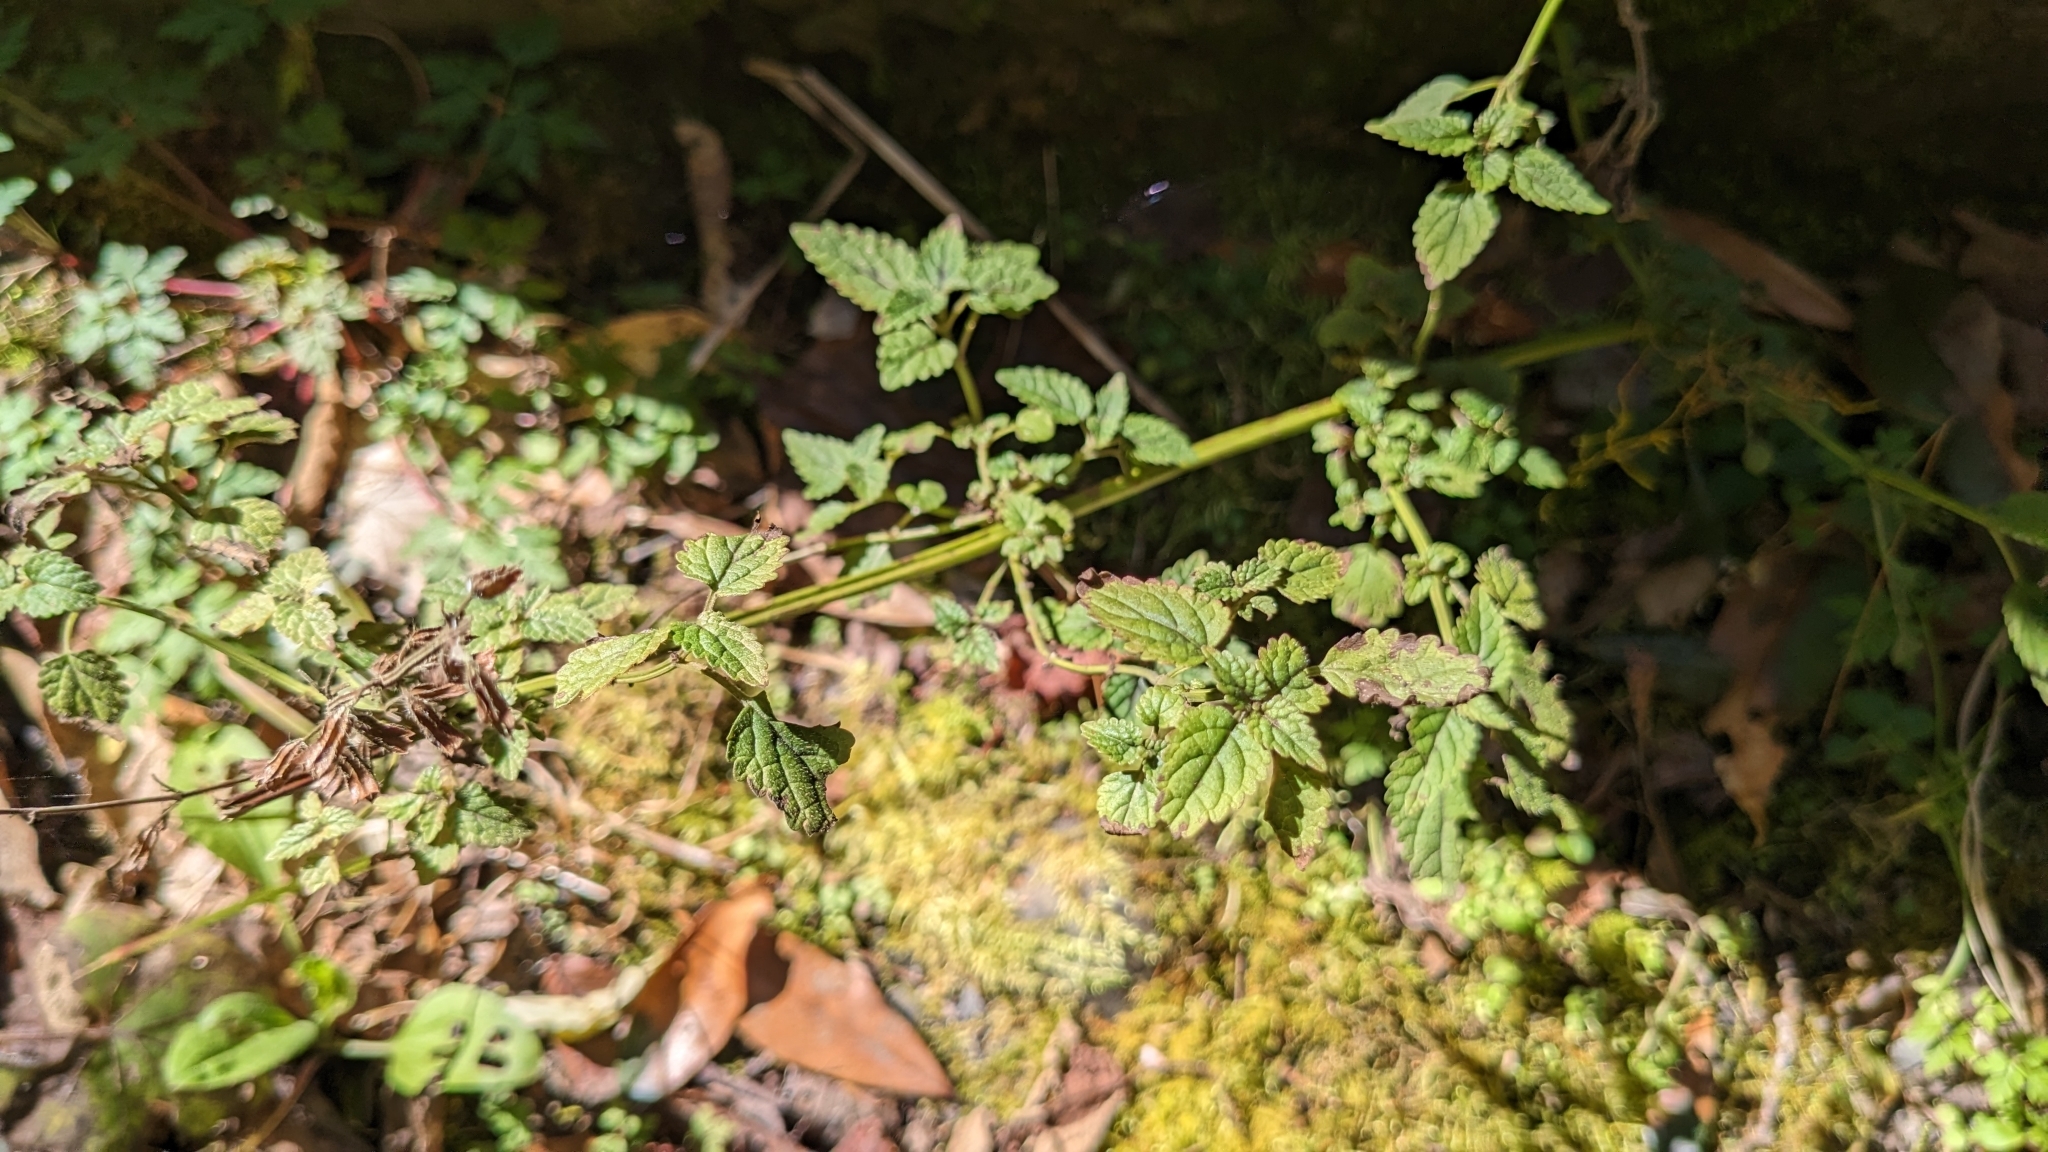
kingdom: Plantae
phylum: Tracheophyta
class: Magnoliopsida
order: Lamiales
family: Lamiaceae
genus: Melissa
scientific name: Melissa axillaris
